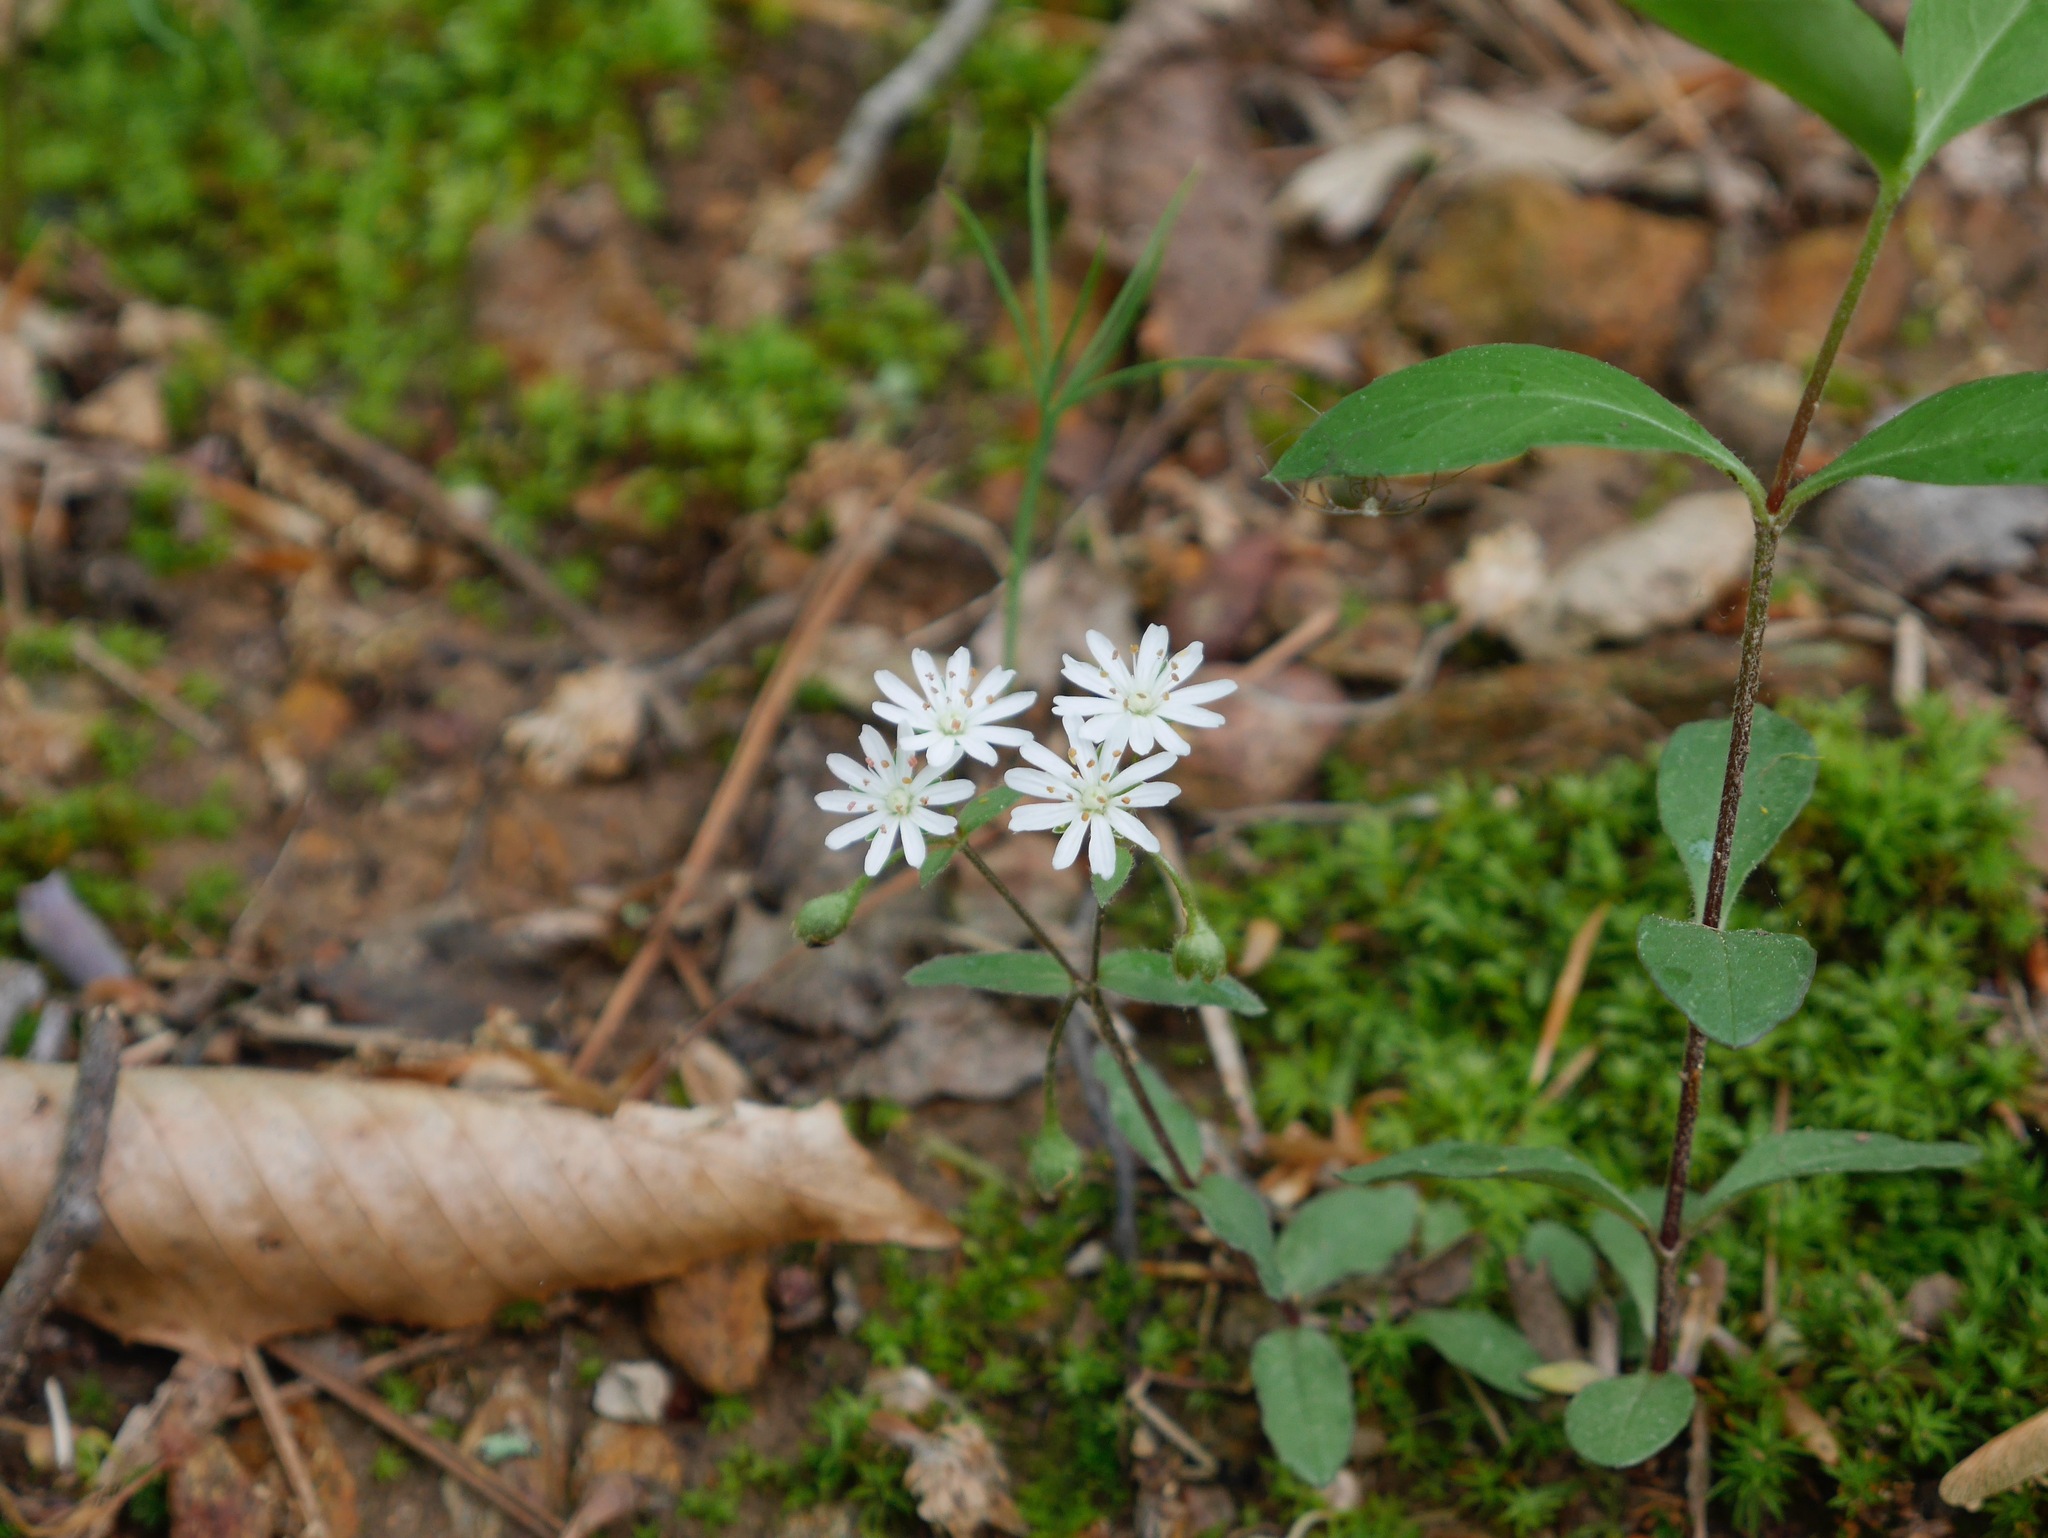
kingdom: Plantae
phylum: Tracheophyta
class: Magnoliopsida
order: Caryophyllales
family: Caryophyllaceae
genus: Stellaria
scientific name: Stellaria pubera
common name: Star chickweed
